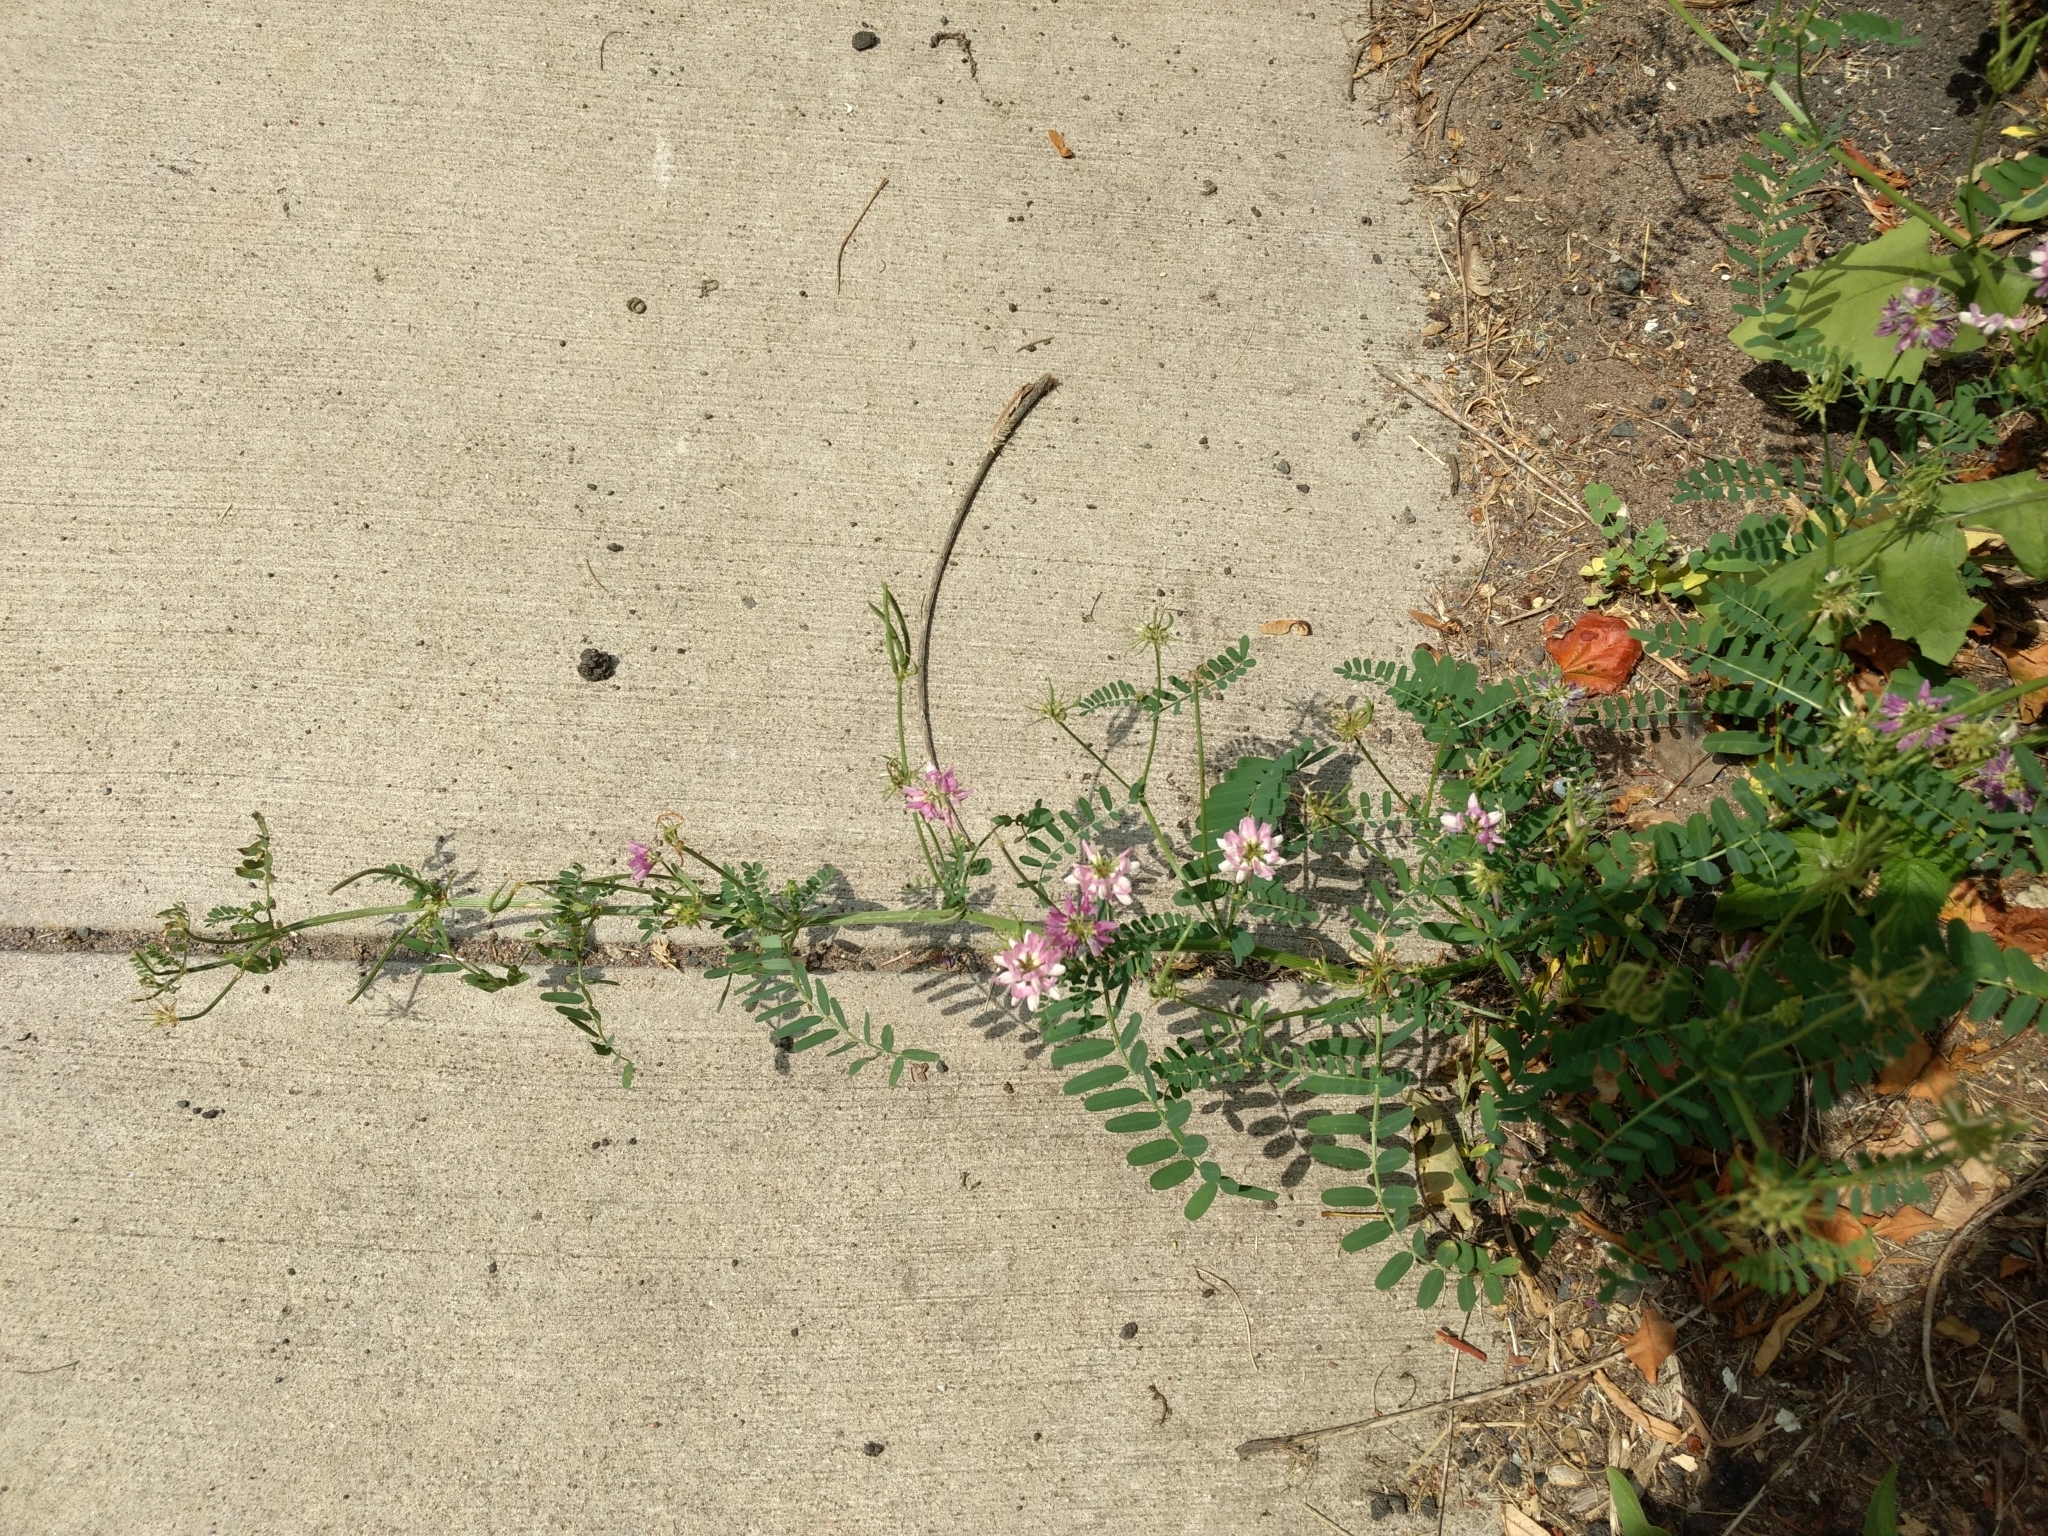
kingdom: Plantae
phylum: Tracheophyta
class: Magnoliopsida
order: Fabales
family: Fabaceae
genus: Coronilla
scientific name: Coronilla varia
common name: Crownvetch
